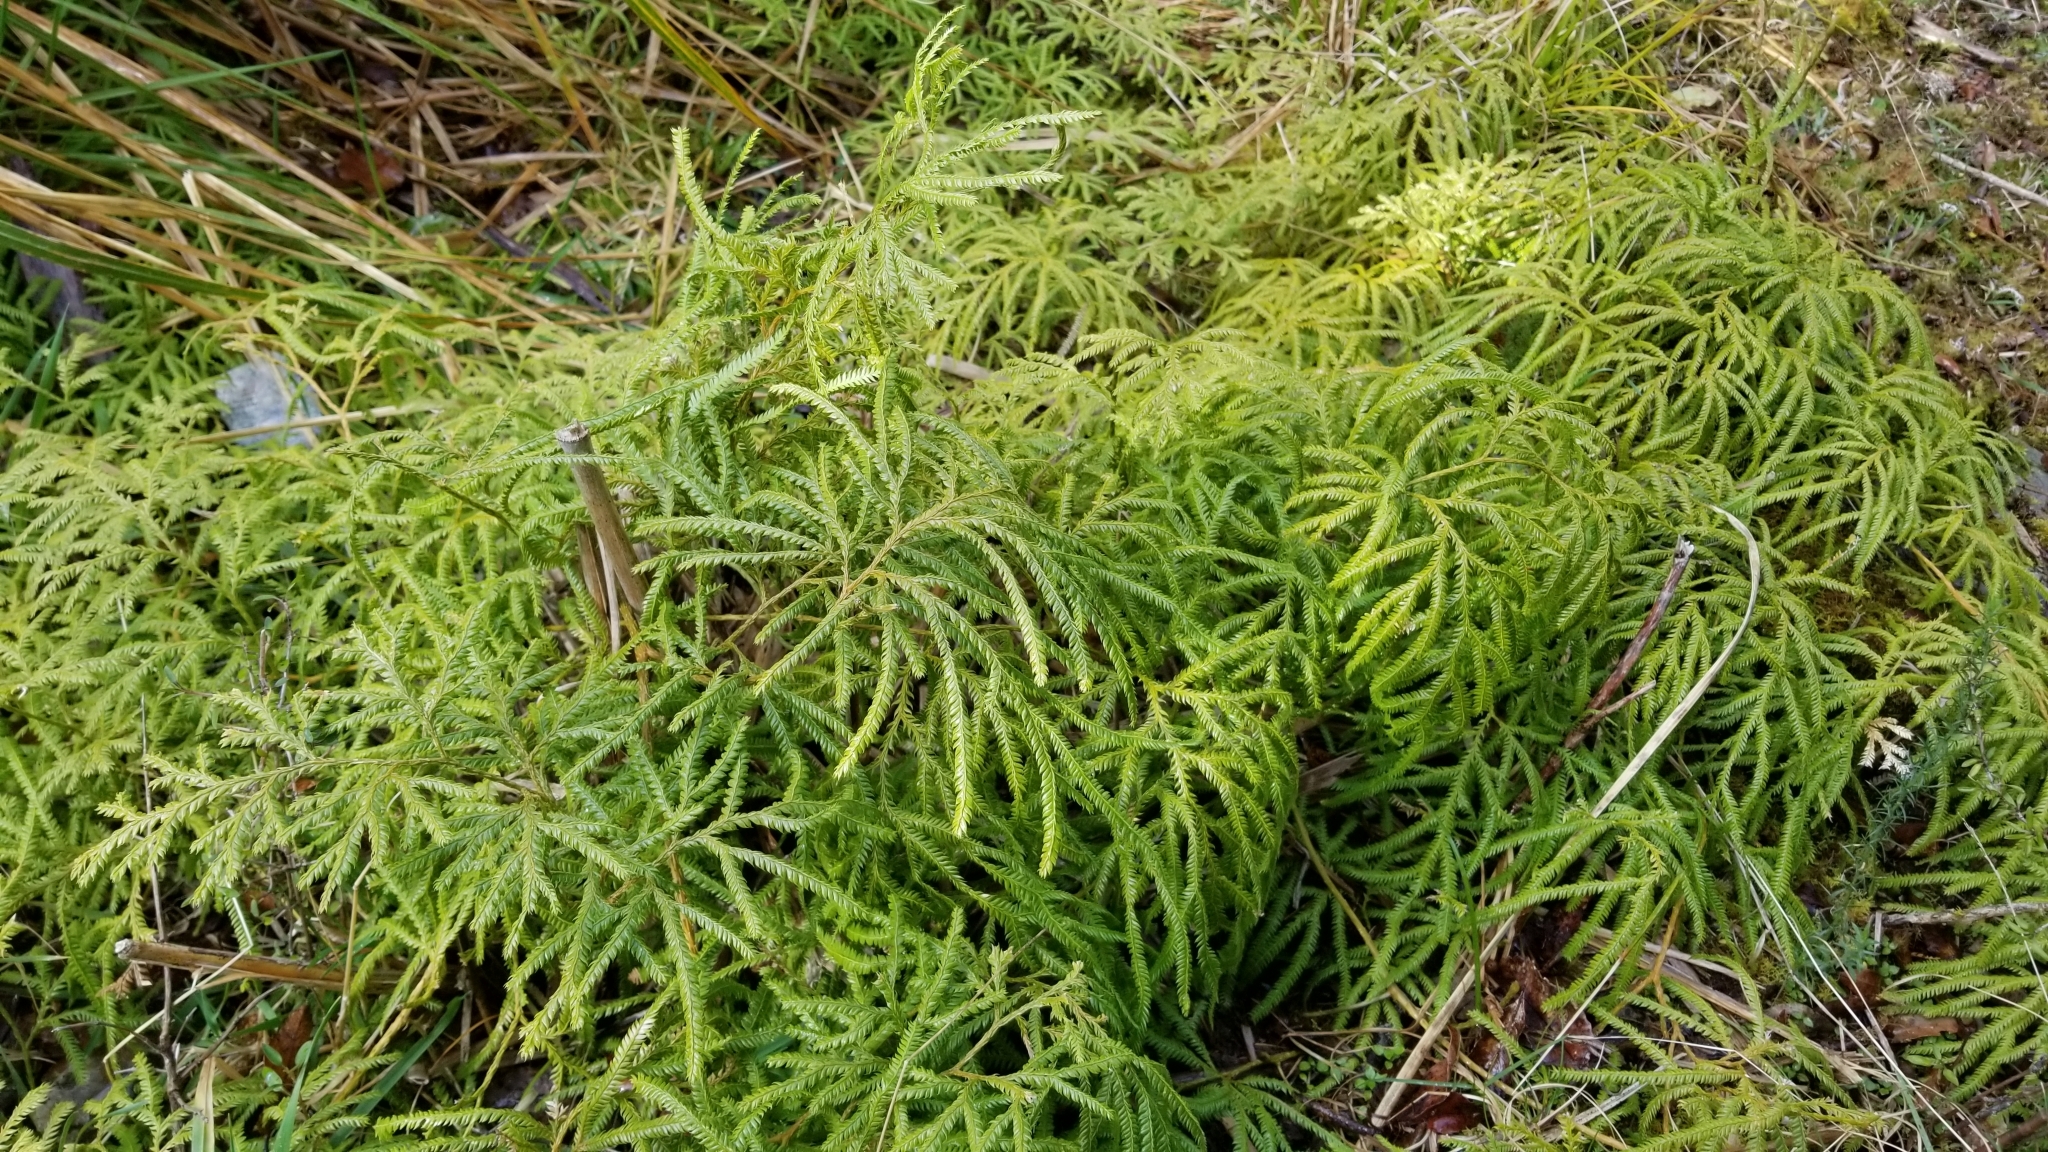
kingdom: Plantae
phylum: Tracheophyta
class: Lycopodiopsida
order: Lycopodiales
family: Lycopodiaceae
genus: Lycopodium
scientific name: Lycopodium volubile
